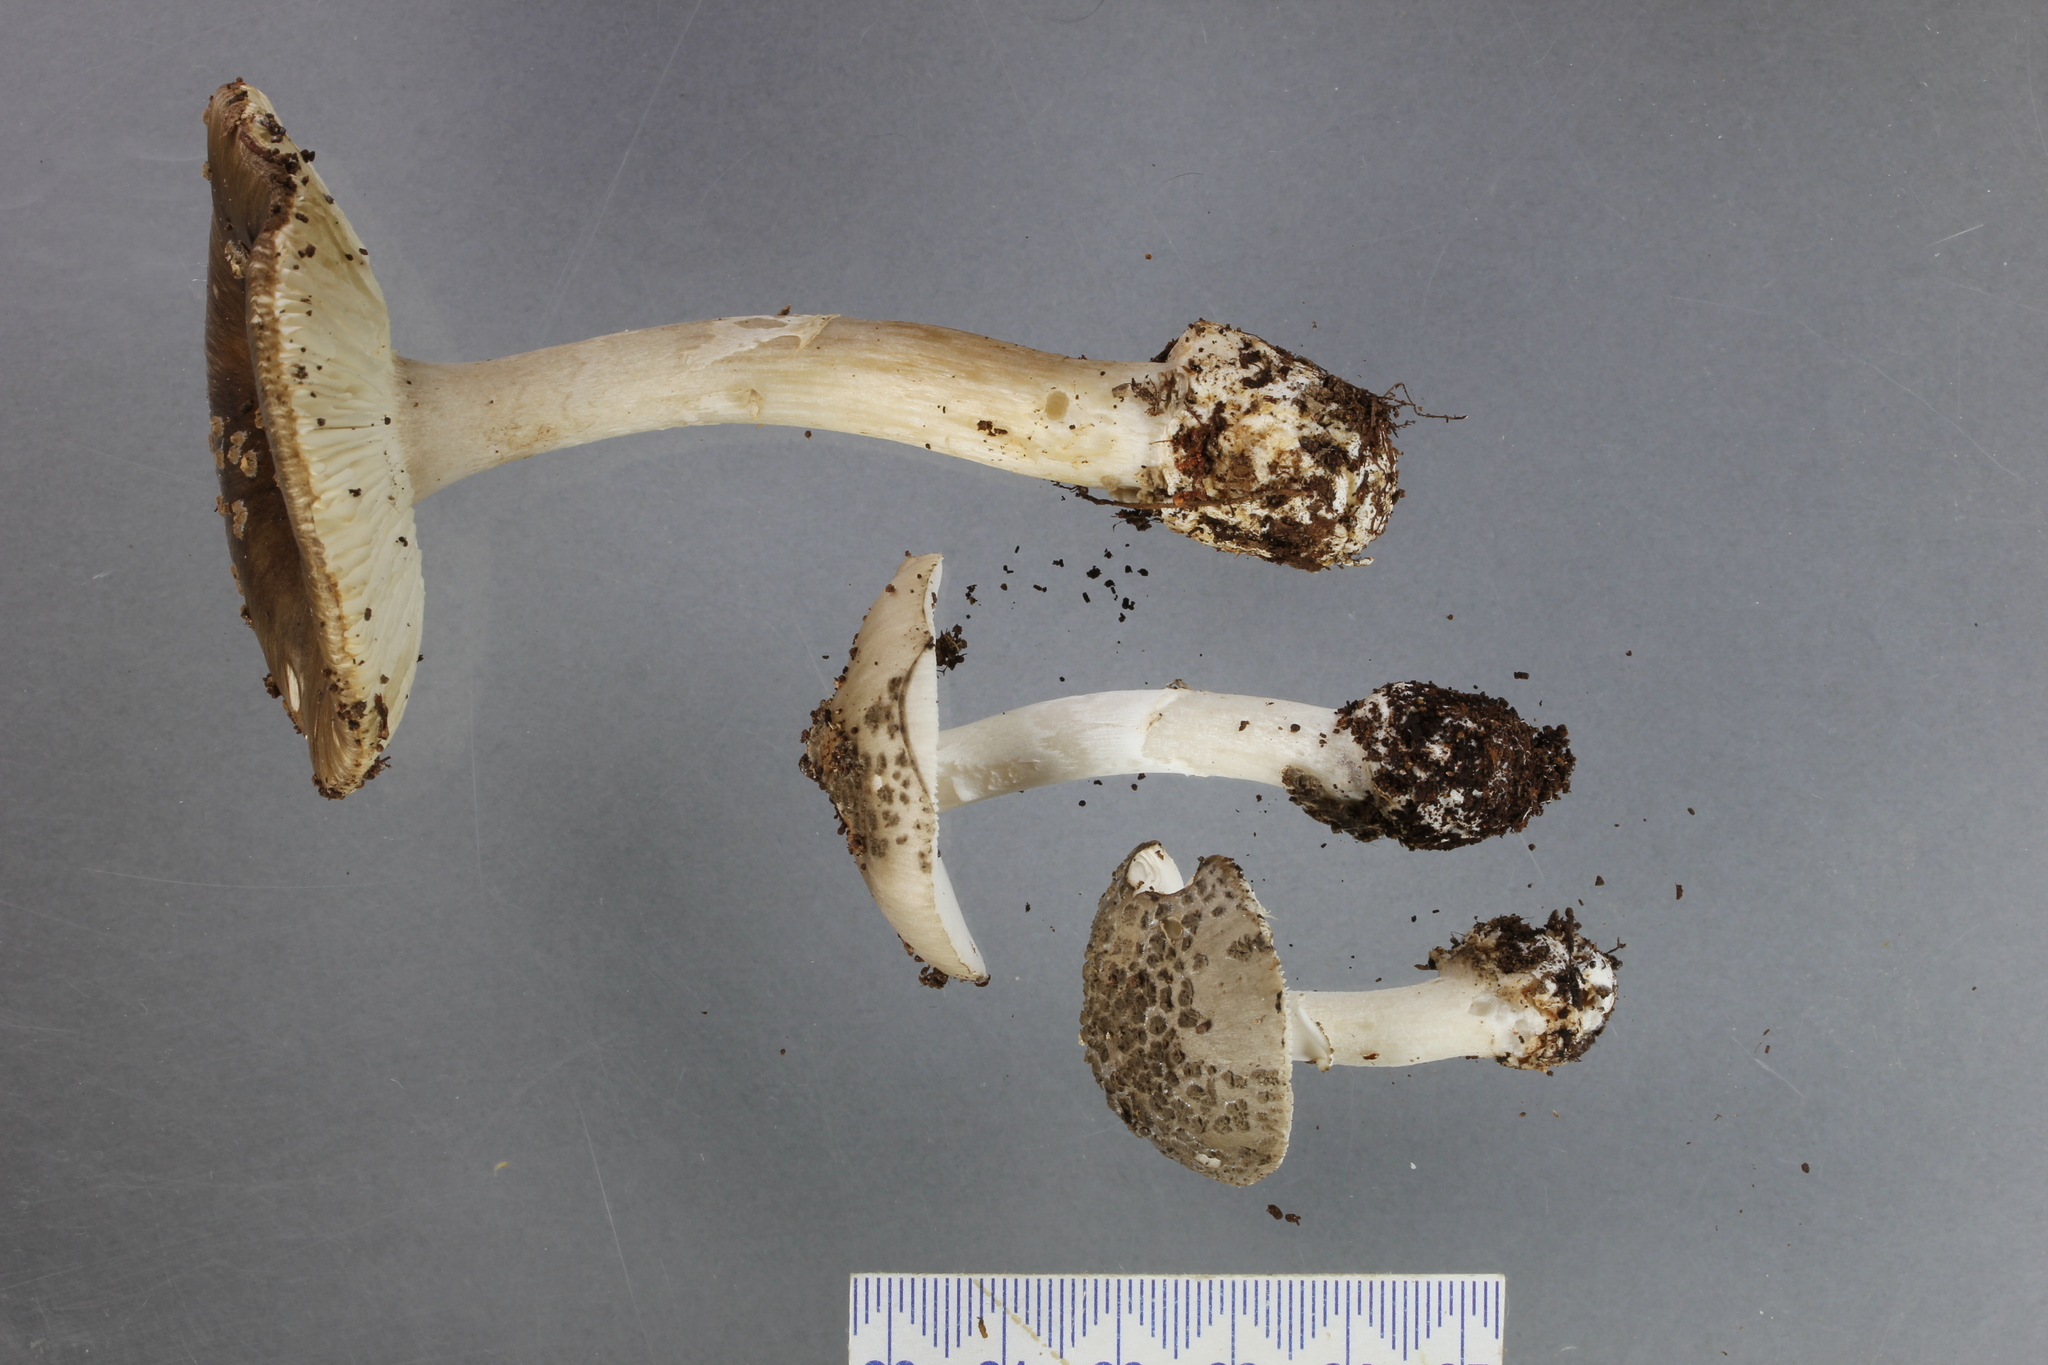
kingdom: Fungi
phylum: Basidiomycota
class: Agaricomycetes
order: Agaricales
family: Amanitaceae
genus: Amanita
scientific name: Amanita nothofagi
